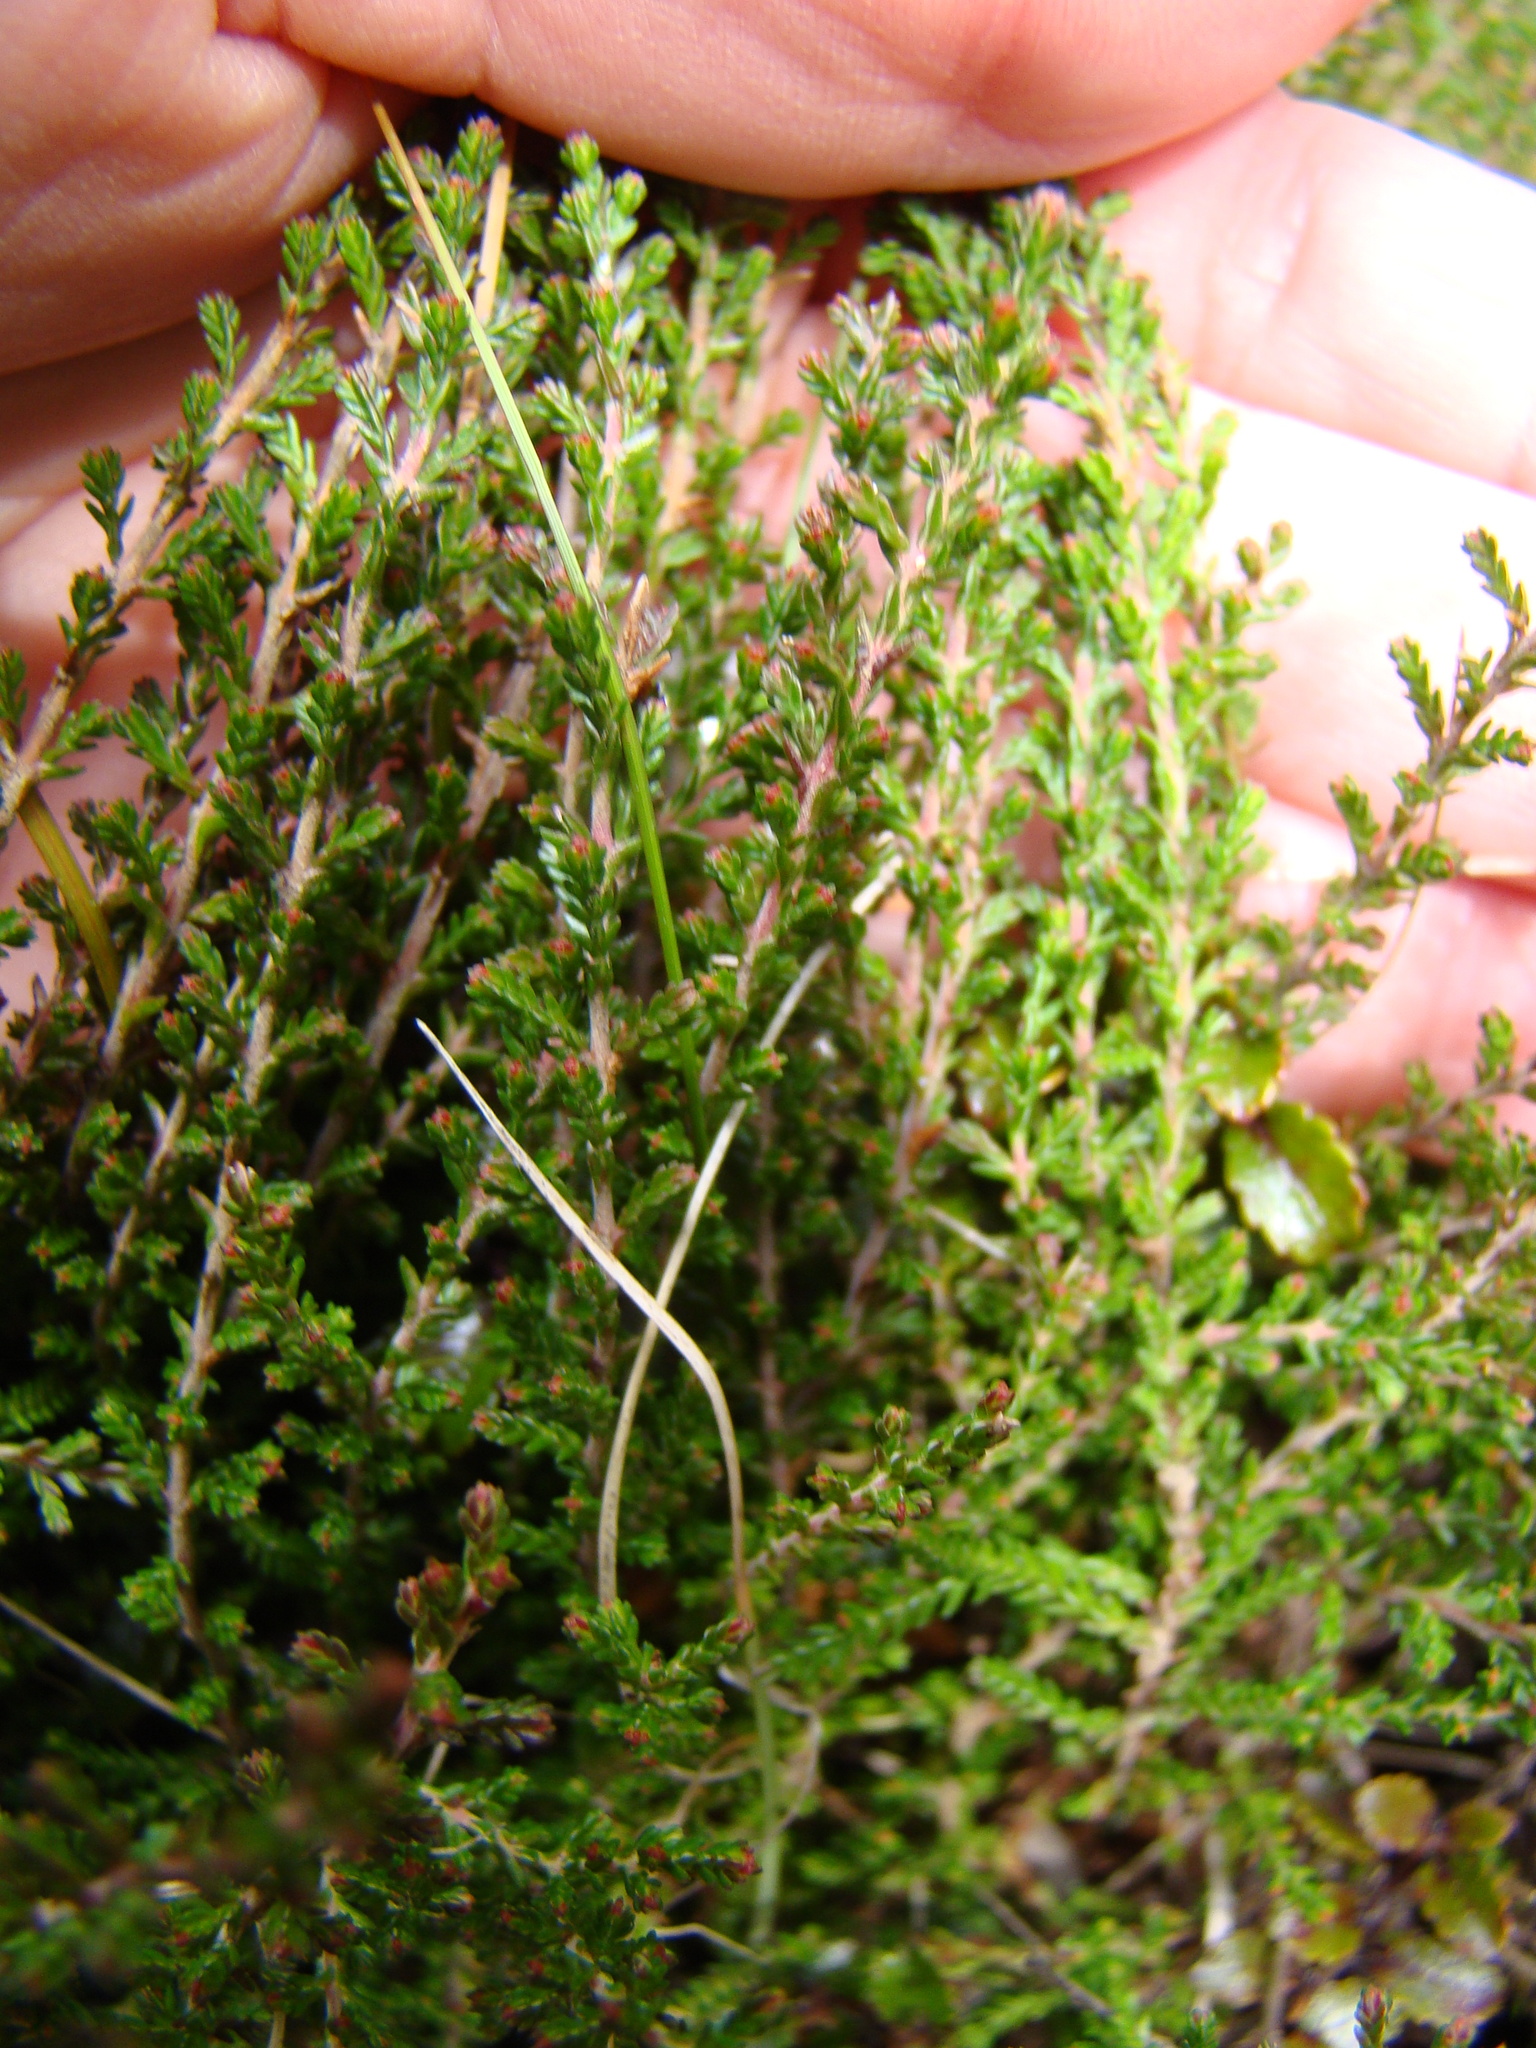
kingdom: Plantae
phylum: Tracheophyta
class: Magnoliopsida
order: Ericales
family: Ericaceae
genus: Calluna
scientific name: Calluna vulgaris
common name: Heather
